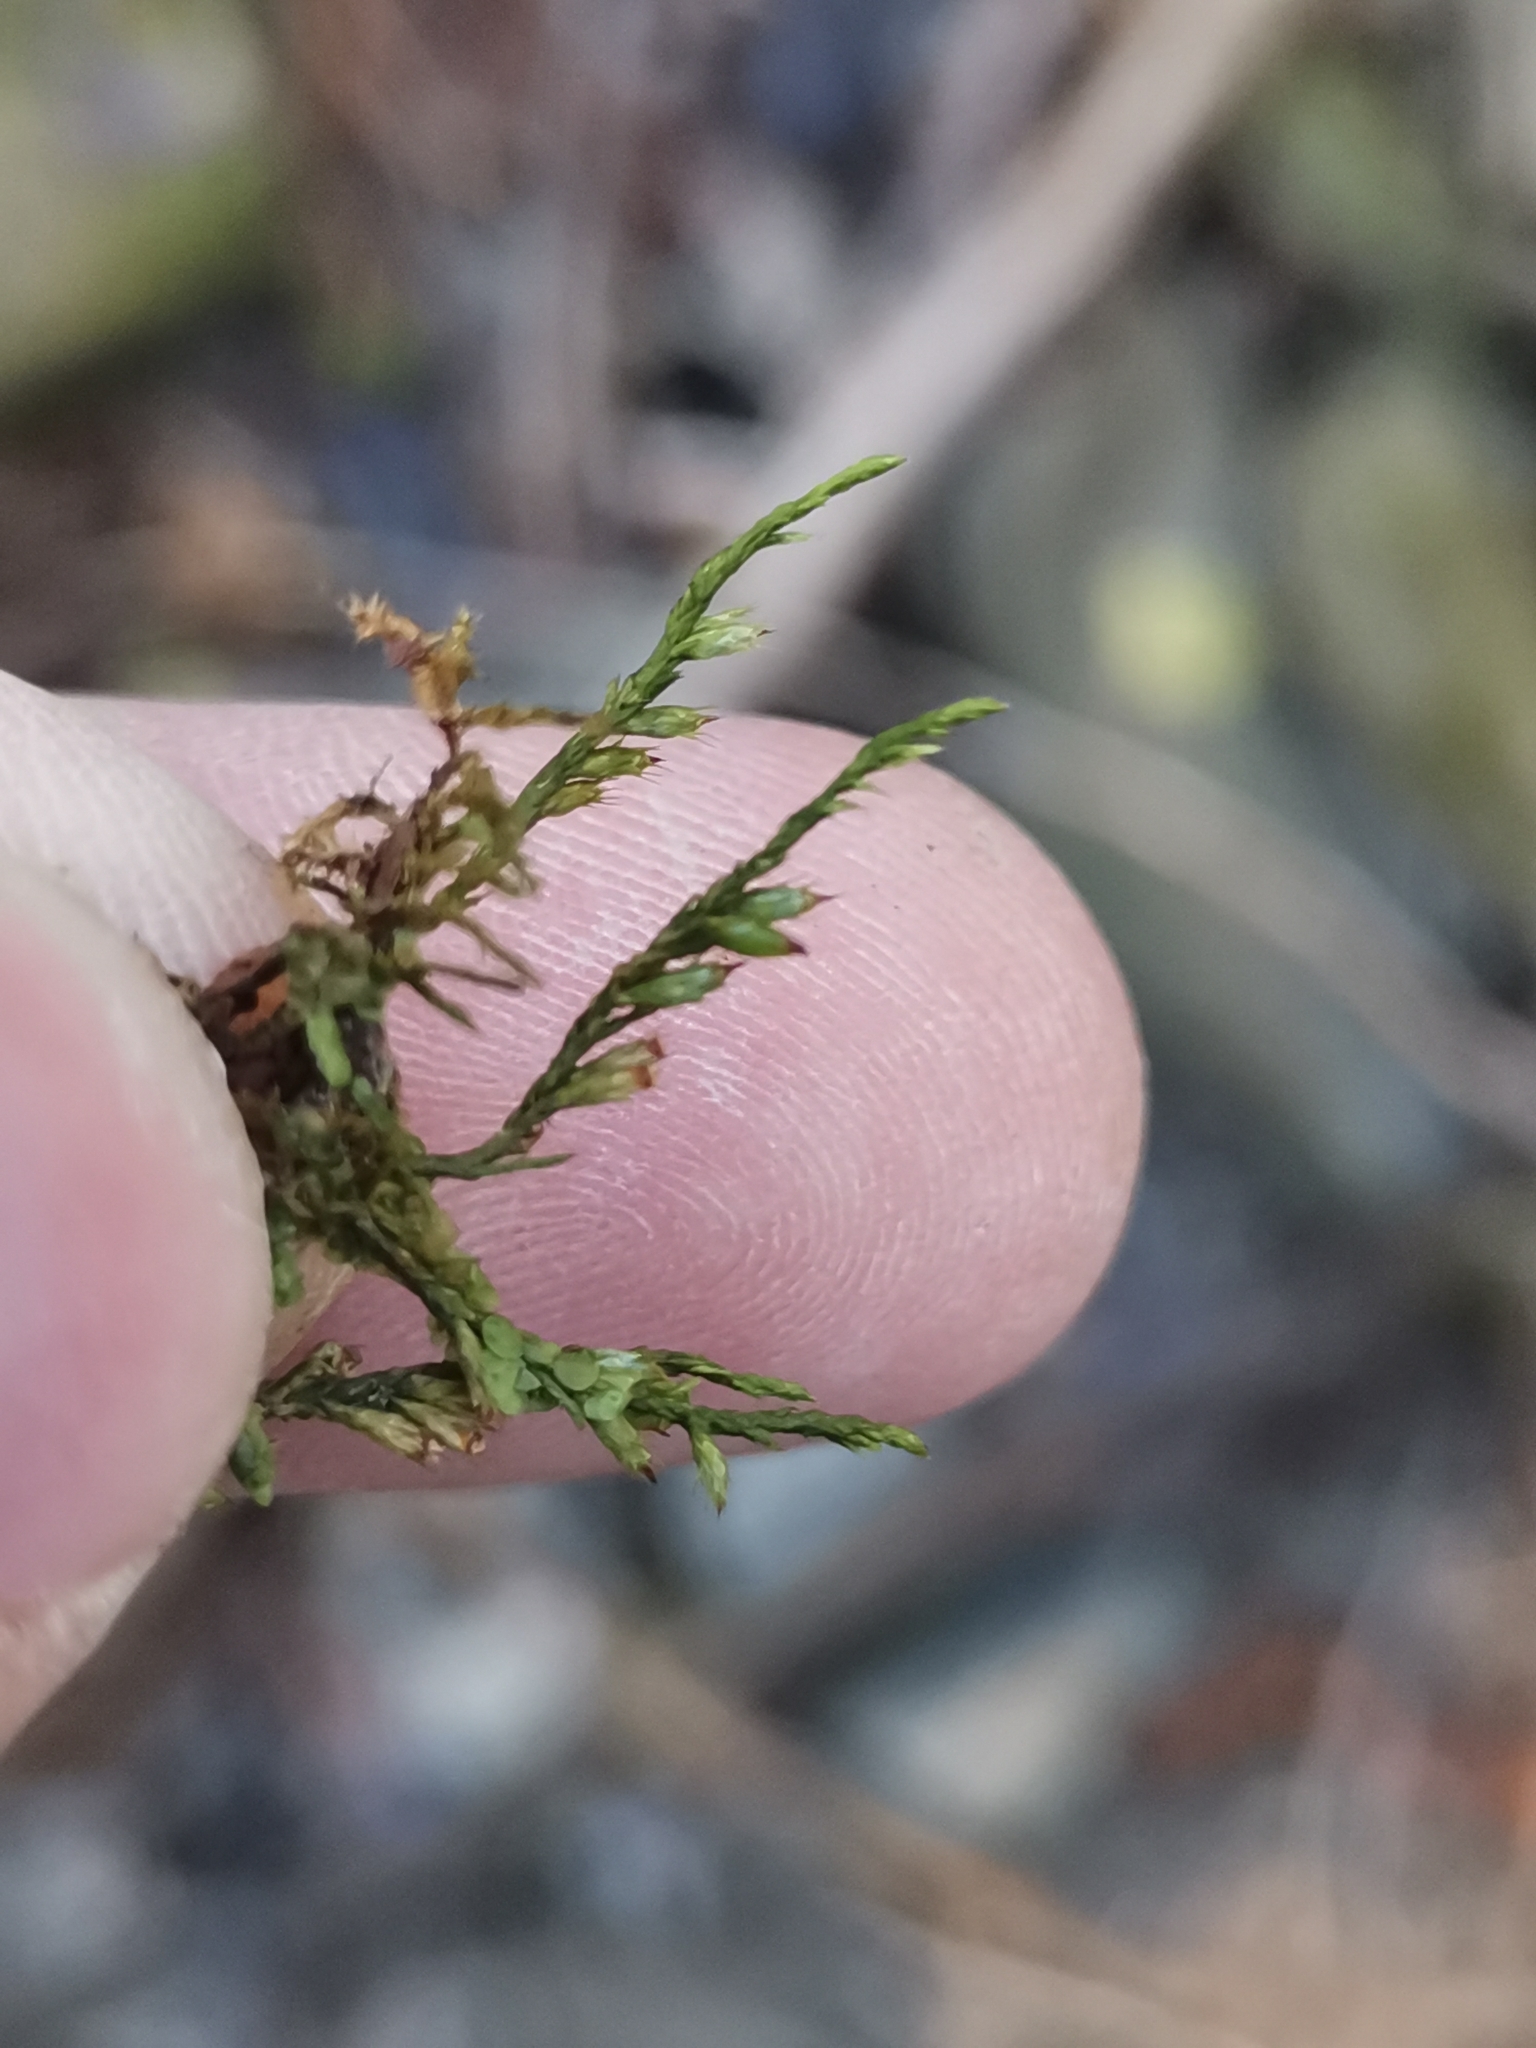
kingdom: Plantae
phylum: Bryophyta
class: Bryopsida
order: Hypnales
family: Cryphaeaceae
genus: Cryphaea
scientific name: Cryphaea heteromalla
